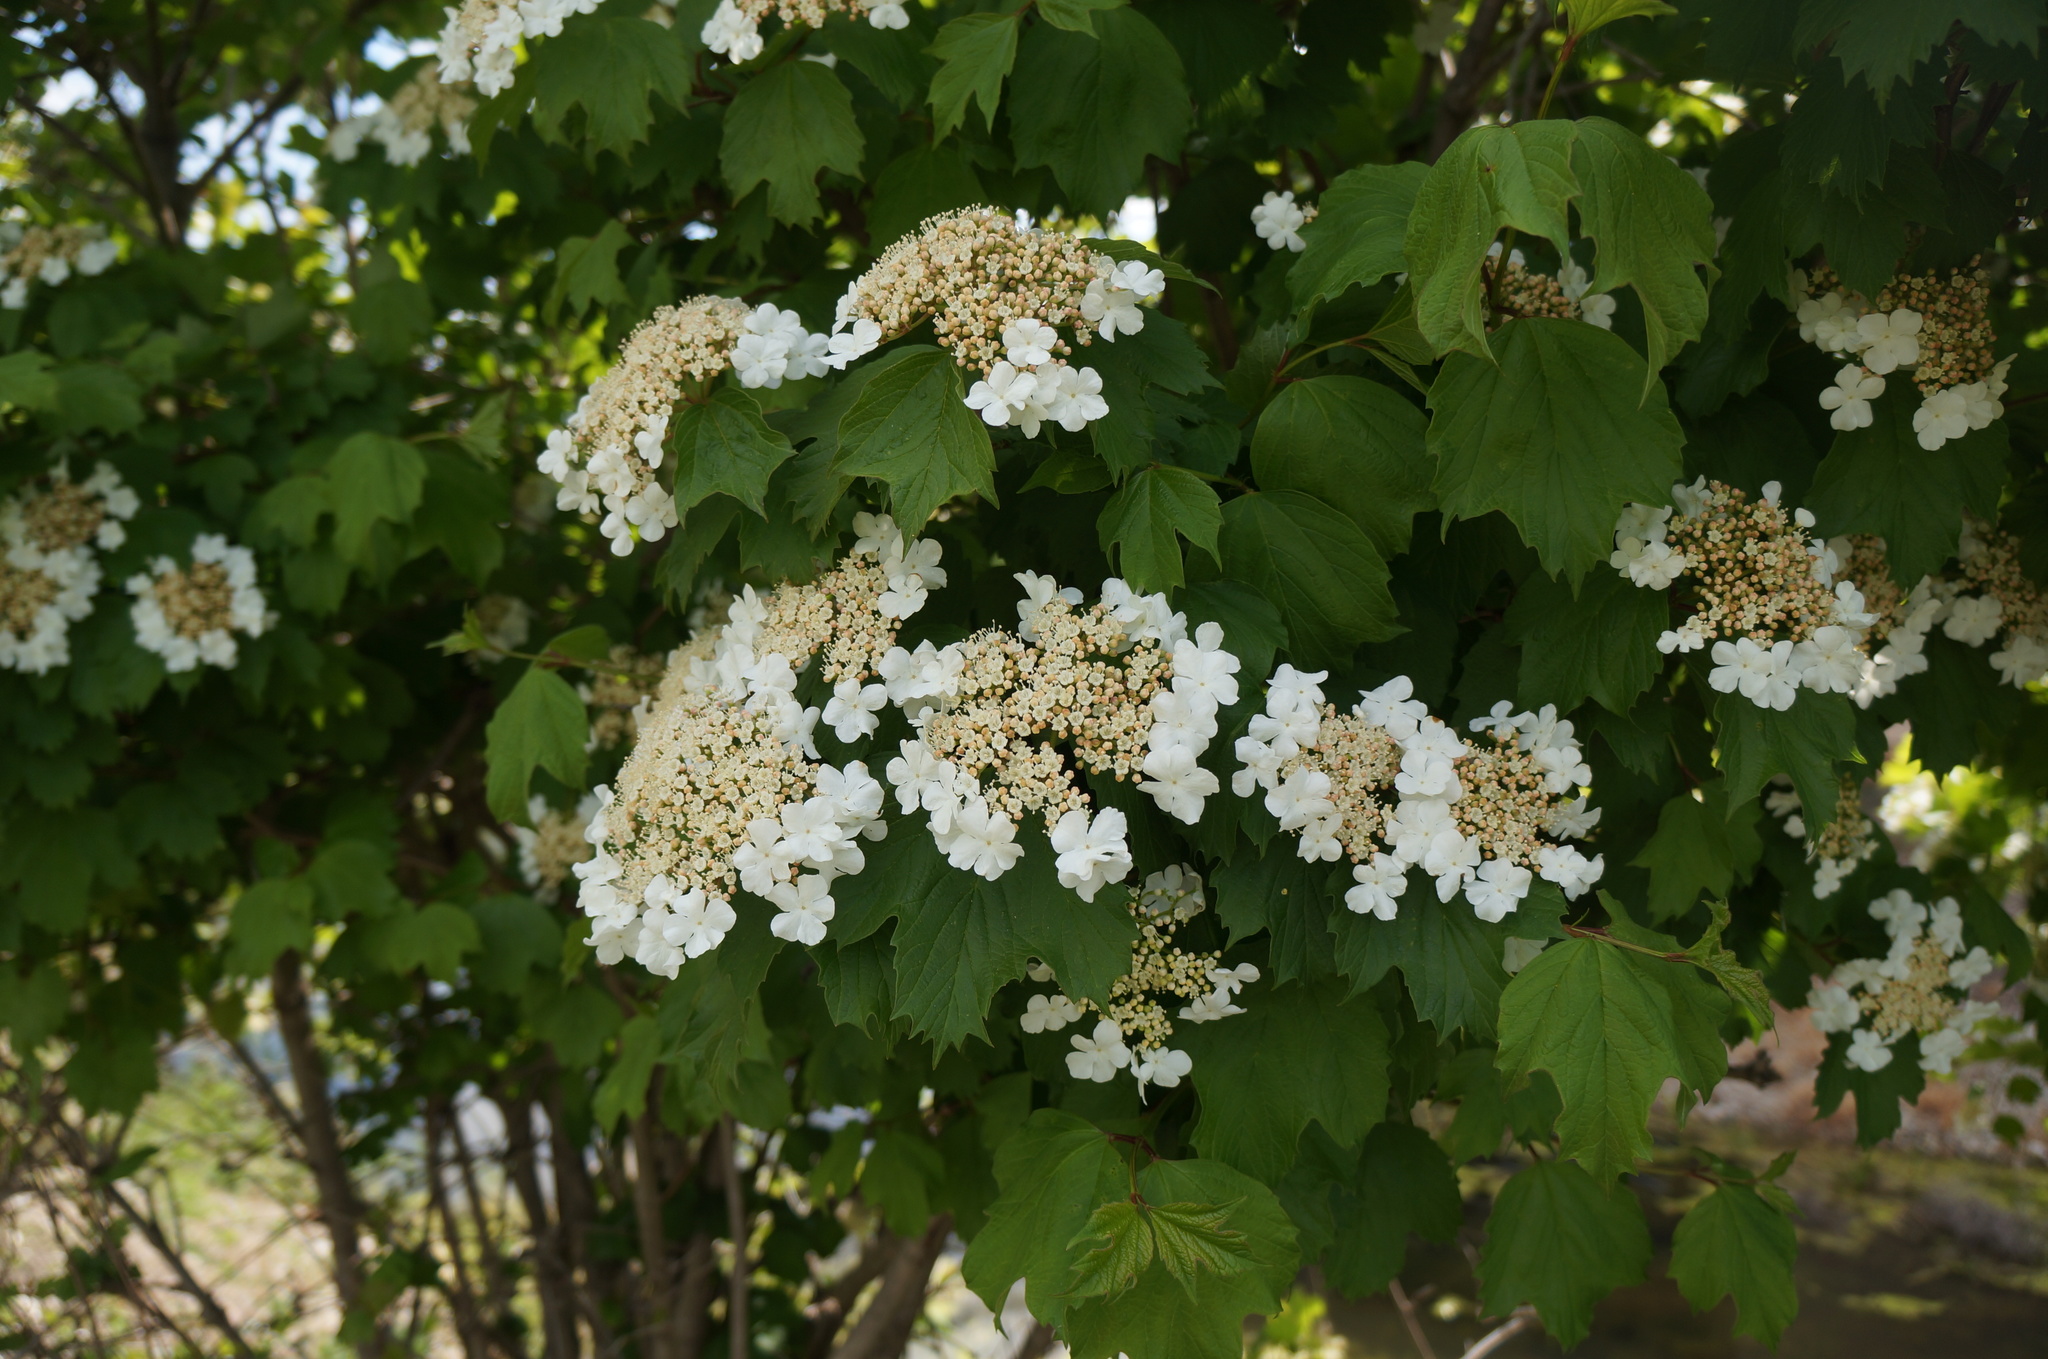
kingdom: Plantae
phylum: Tracheophyta
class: Magnoliopsida
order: Dipsacales
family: Viburnaceae
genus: Viburnum
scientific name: Viburnum opulus
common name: Guelder-rose
